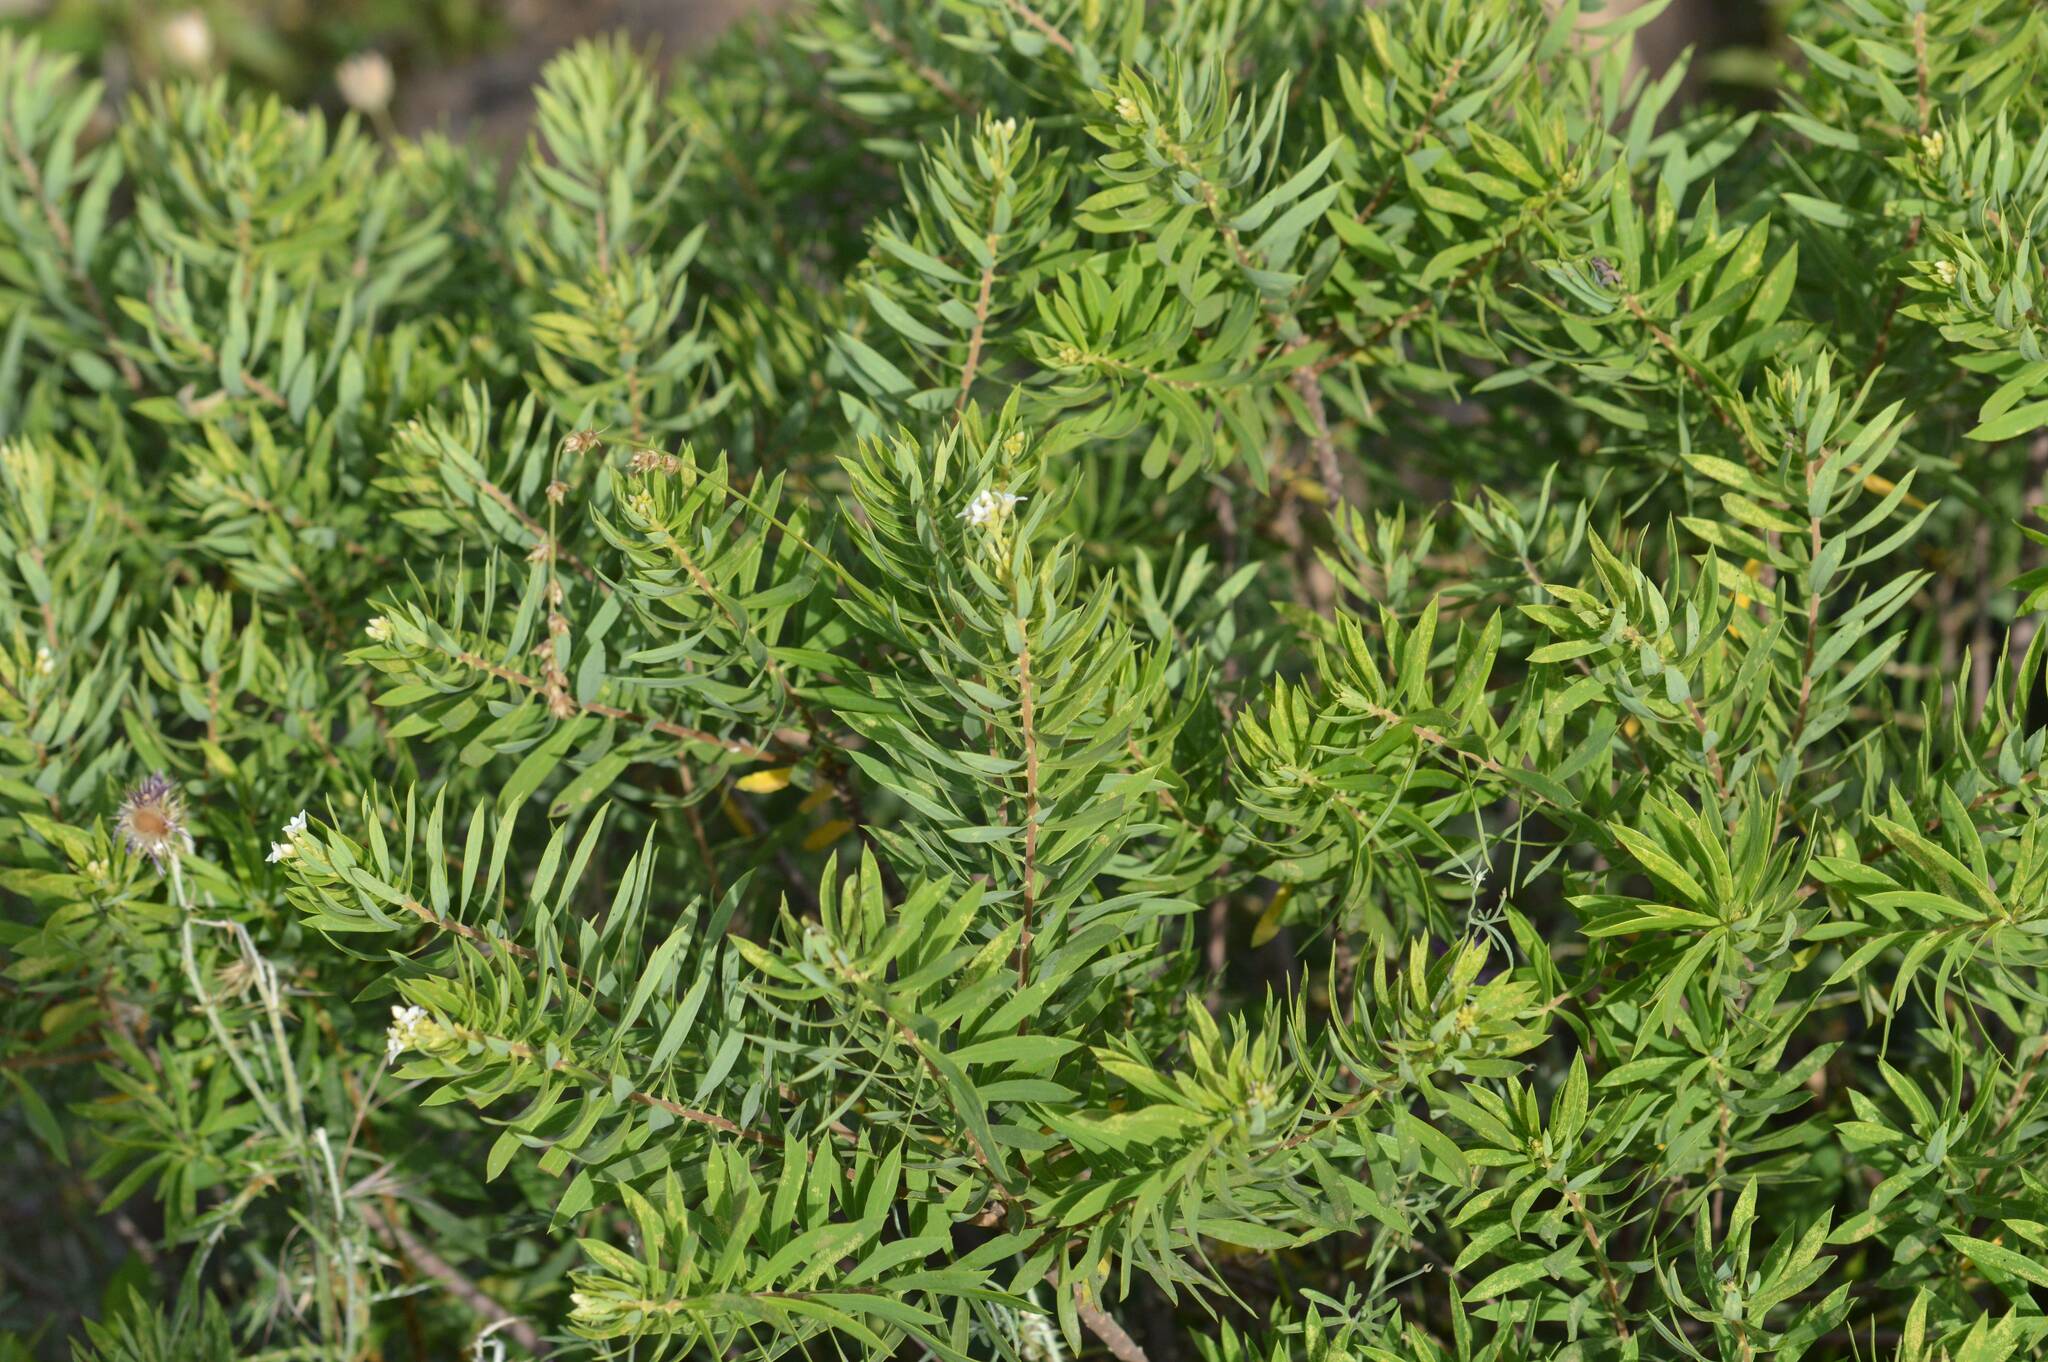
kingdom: Plantae
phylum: Tracheophyta
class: Magnoliopsida
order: Malvales
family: Thymelaeaceae
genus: Daphne
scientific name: Daphne gnidium
